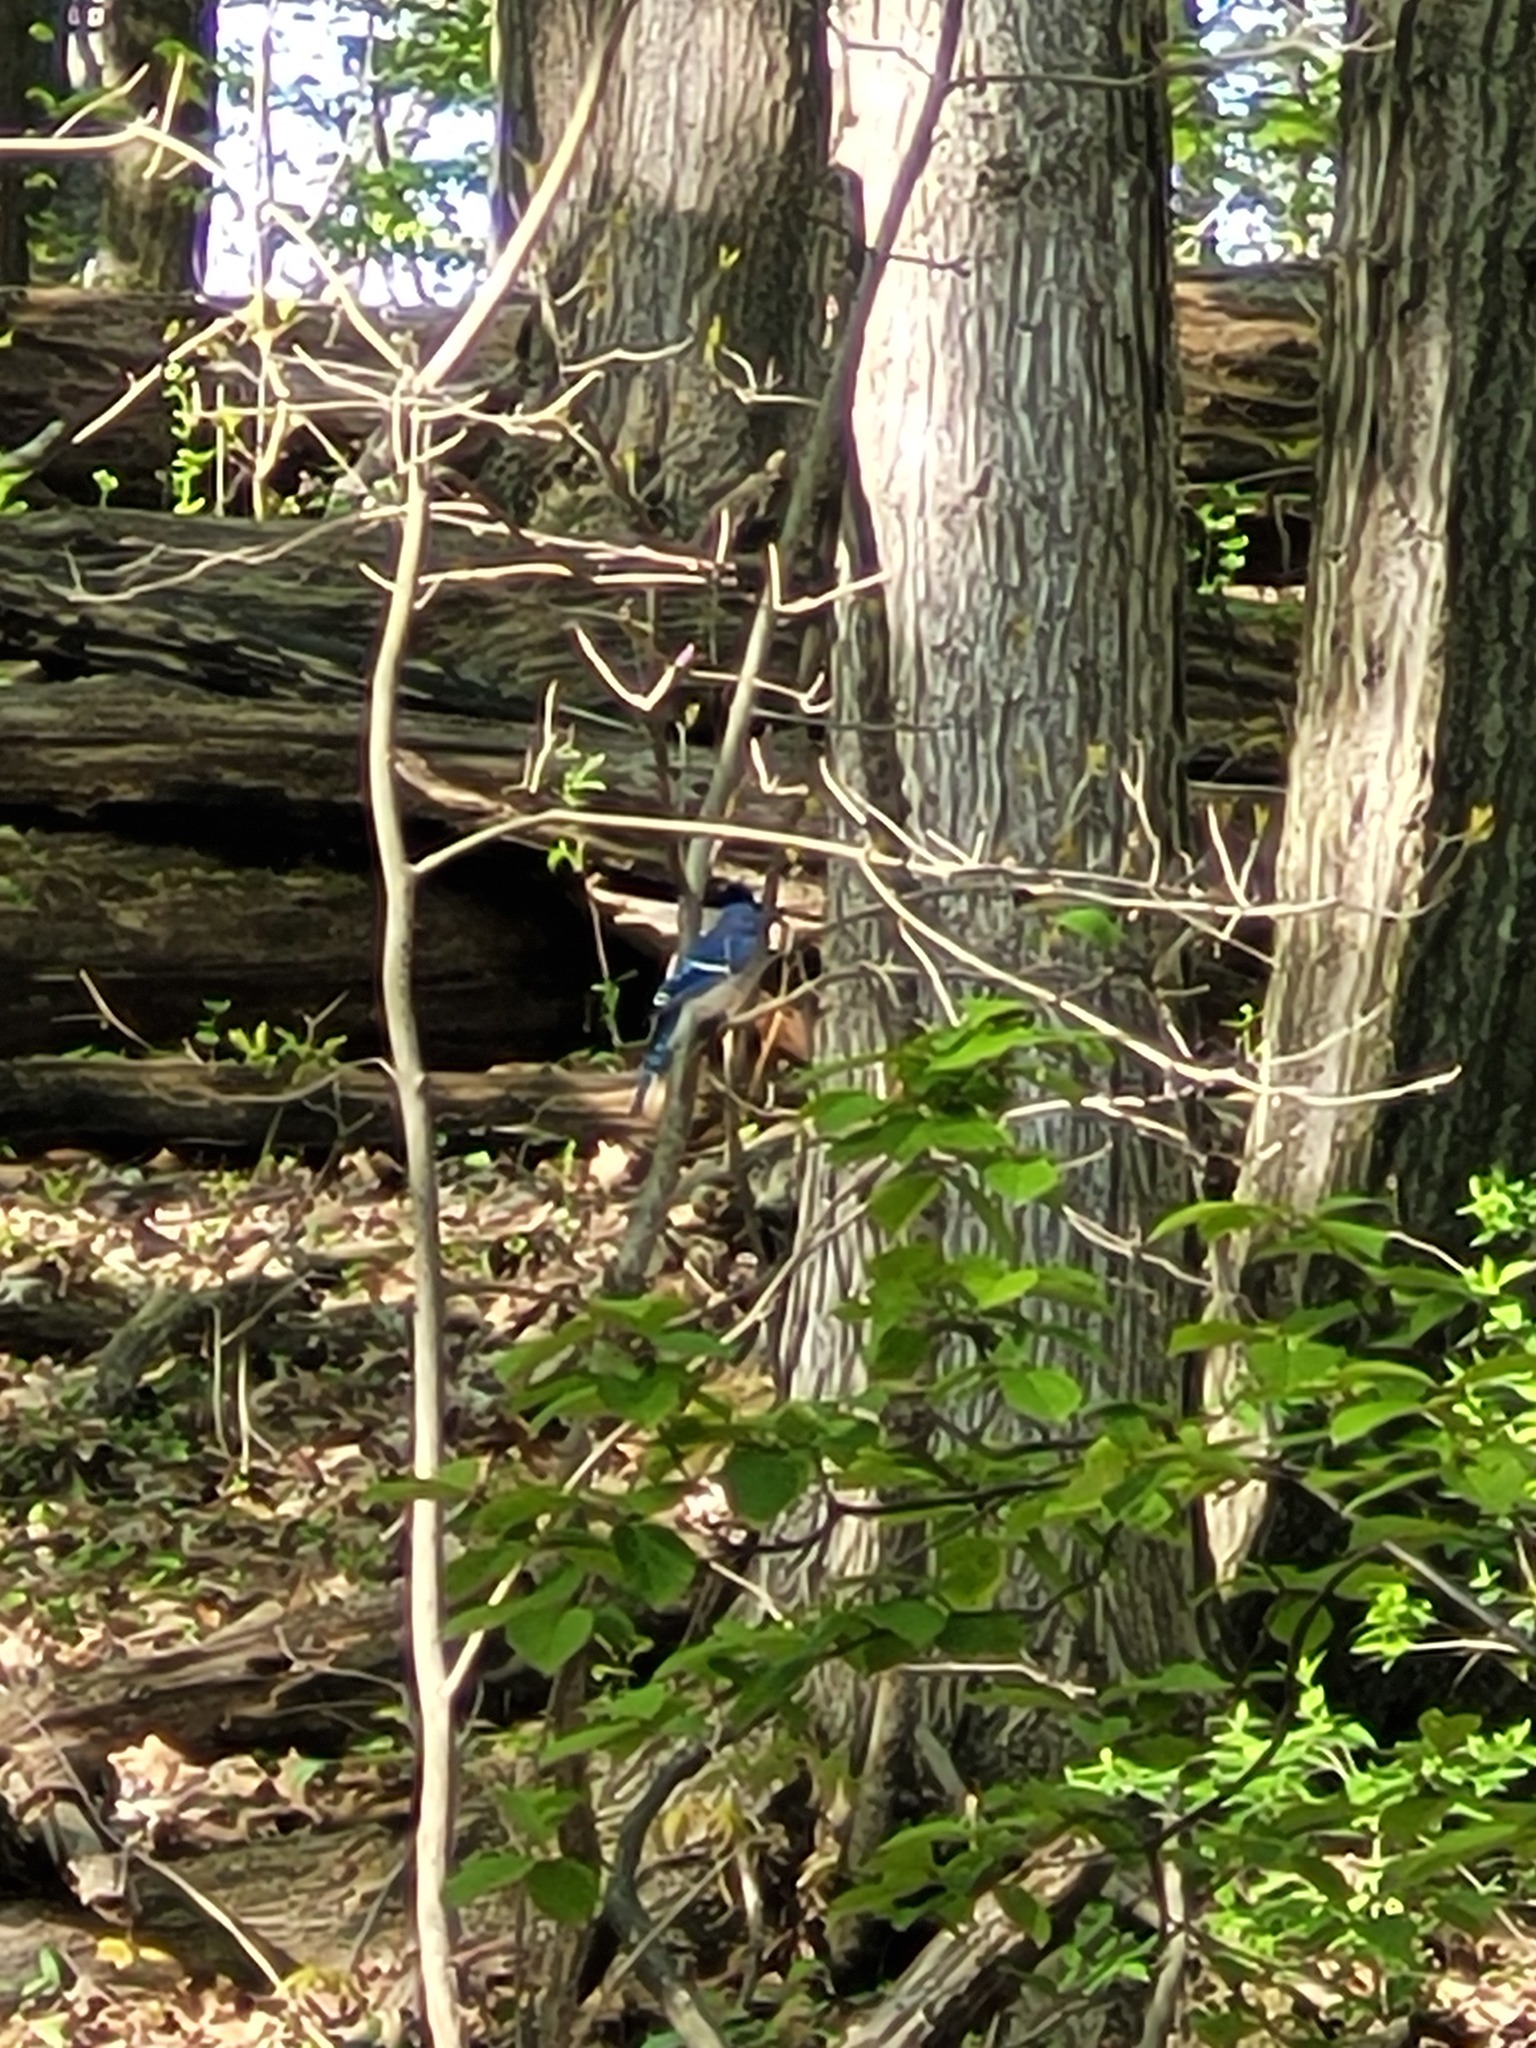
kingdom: Animalia
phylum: Chordata
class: Aves
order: Passeriformes
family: Corvidae
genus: Cyanocitta
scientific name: Cyanocitta cristata
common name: Blue jay
